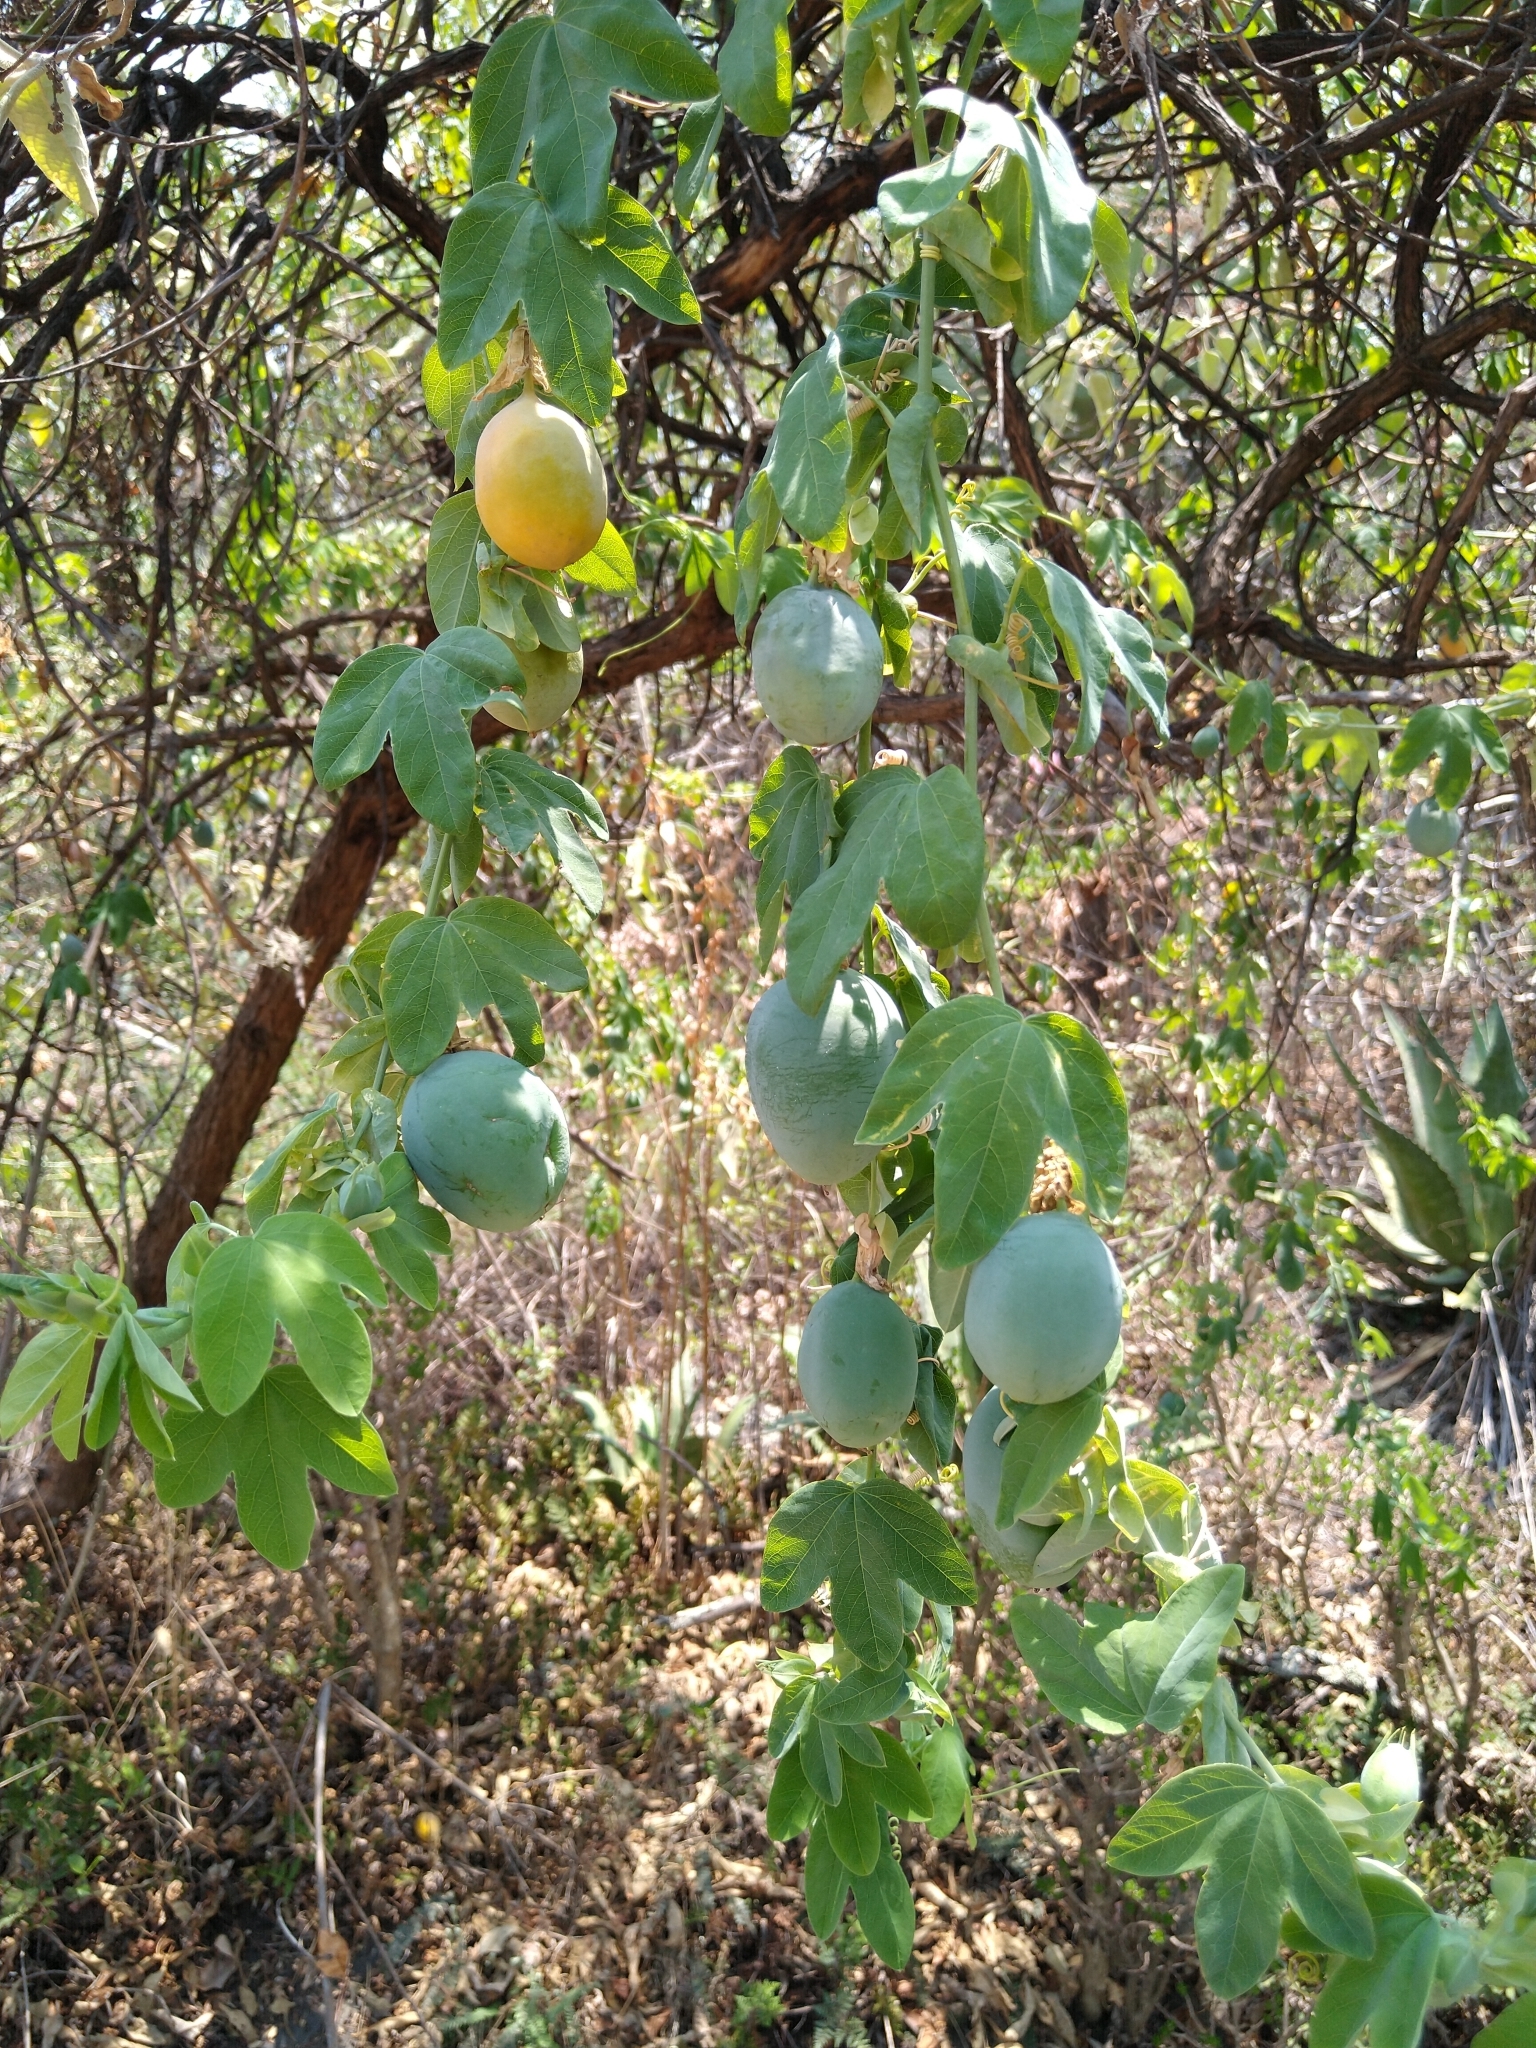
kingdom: Plantae
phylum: Tracheophyta
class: Magnoliopsida
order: Malpighiales
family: Passifloraceae
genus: Passiflora
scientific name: Passiflora subpeltata
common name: White passionflower
